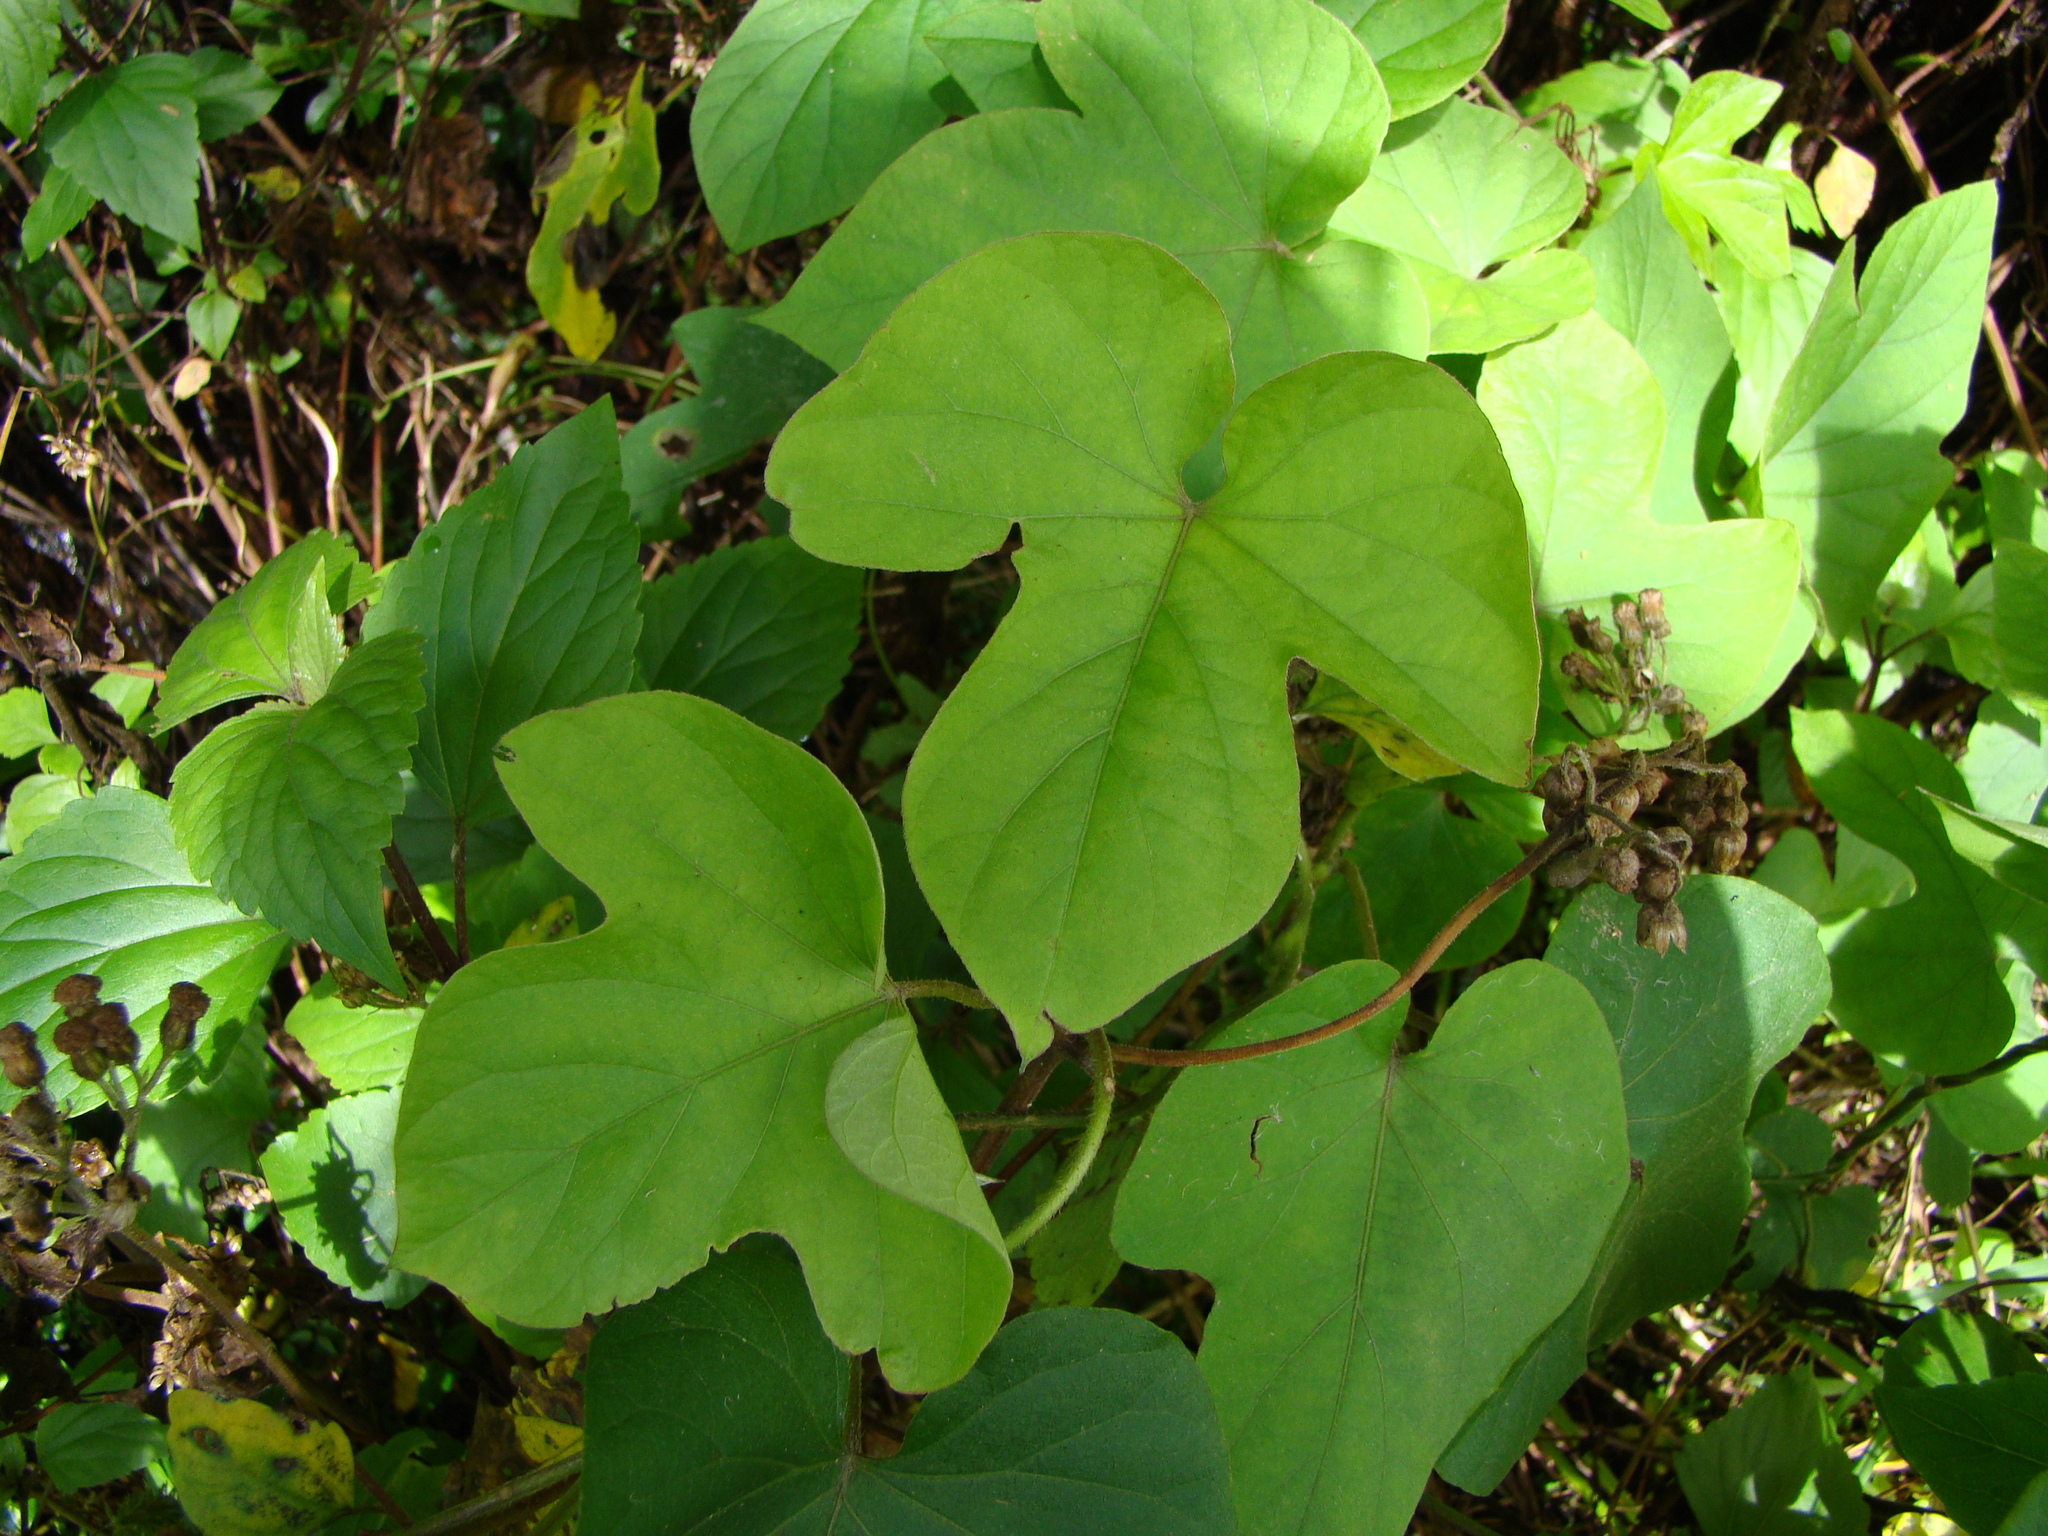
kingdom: Plantae
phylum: Tracheophyta
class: Magnoliopsida
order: Solanales
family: Convolvulaceae
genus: Ipomoea
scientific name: Ipomoea indica
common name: Blue dawnflower
